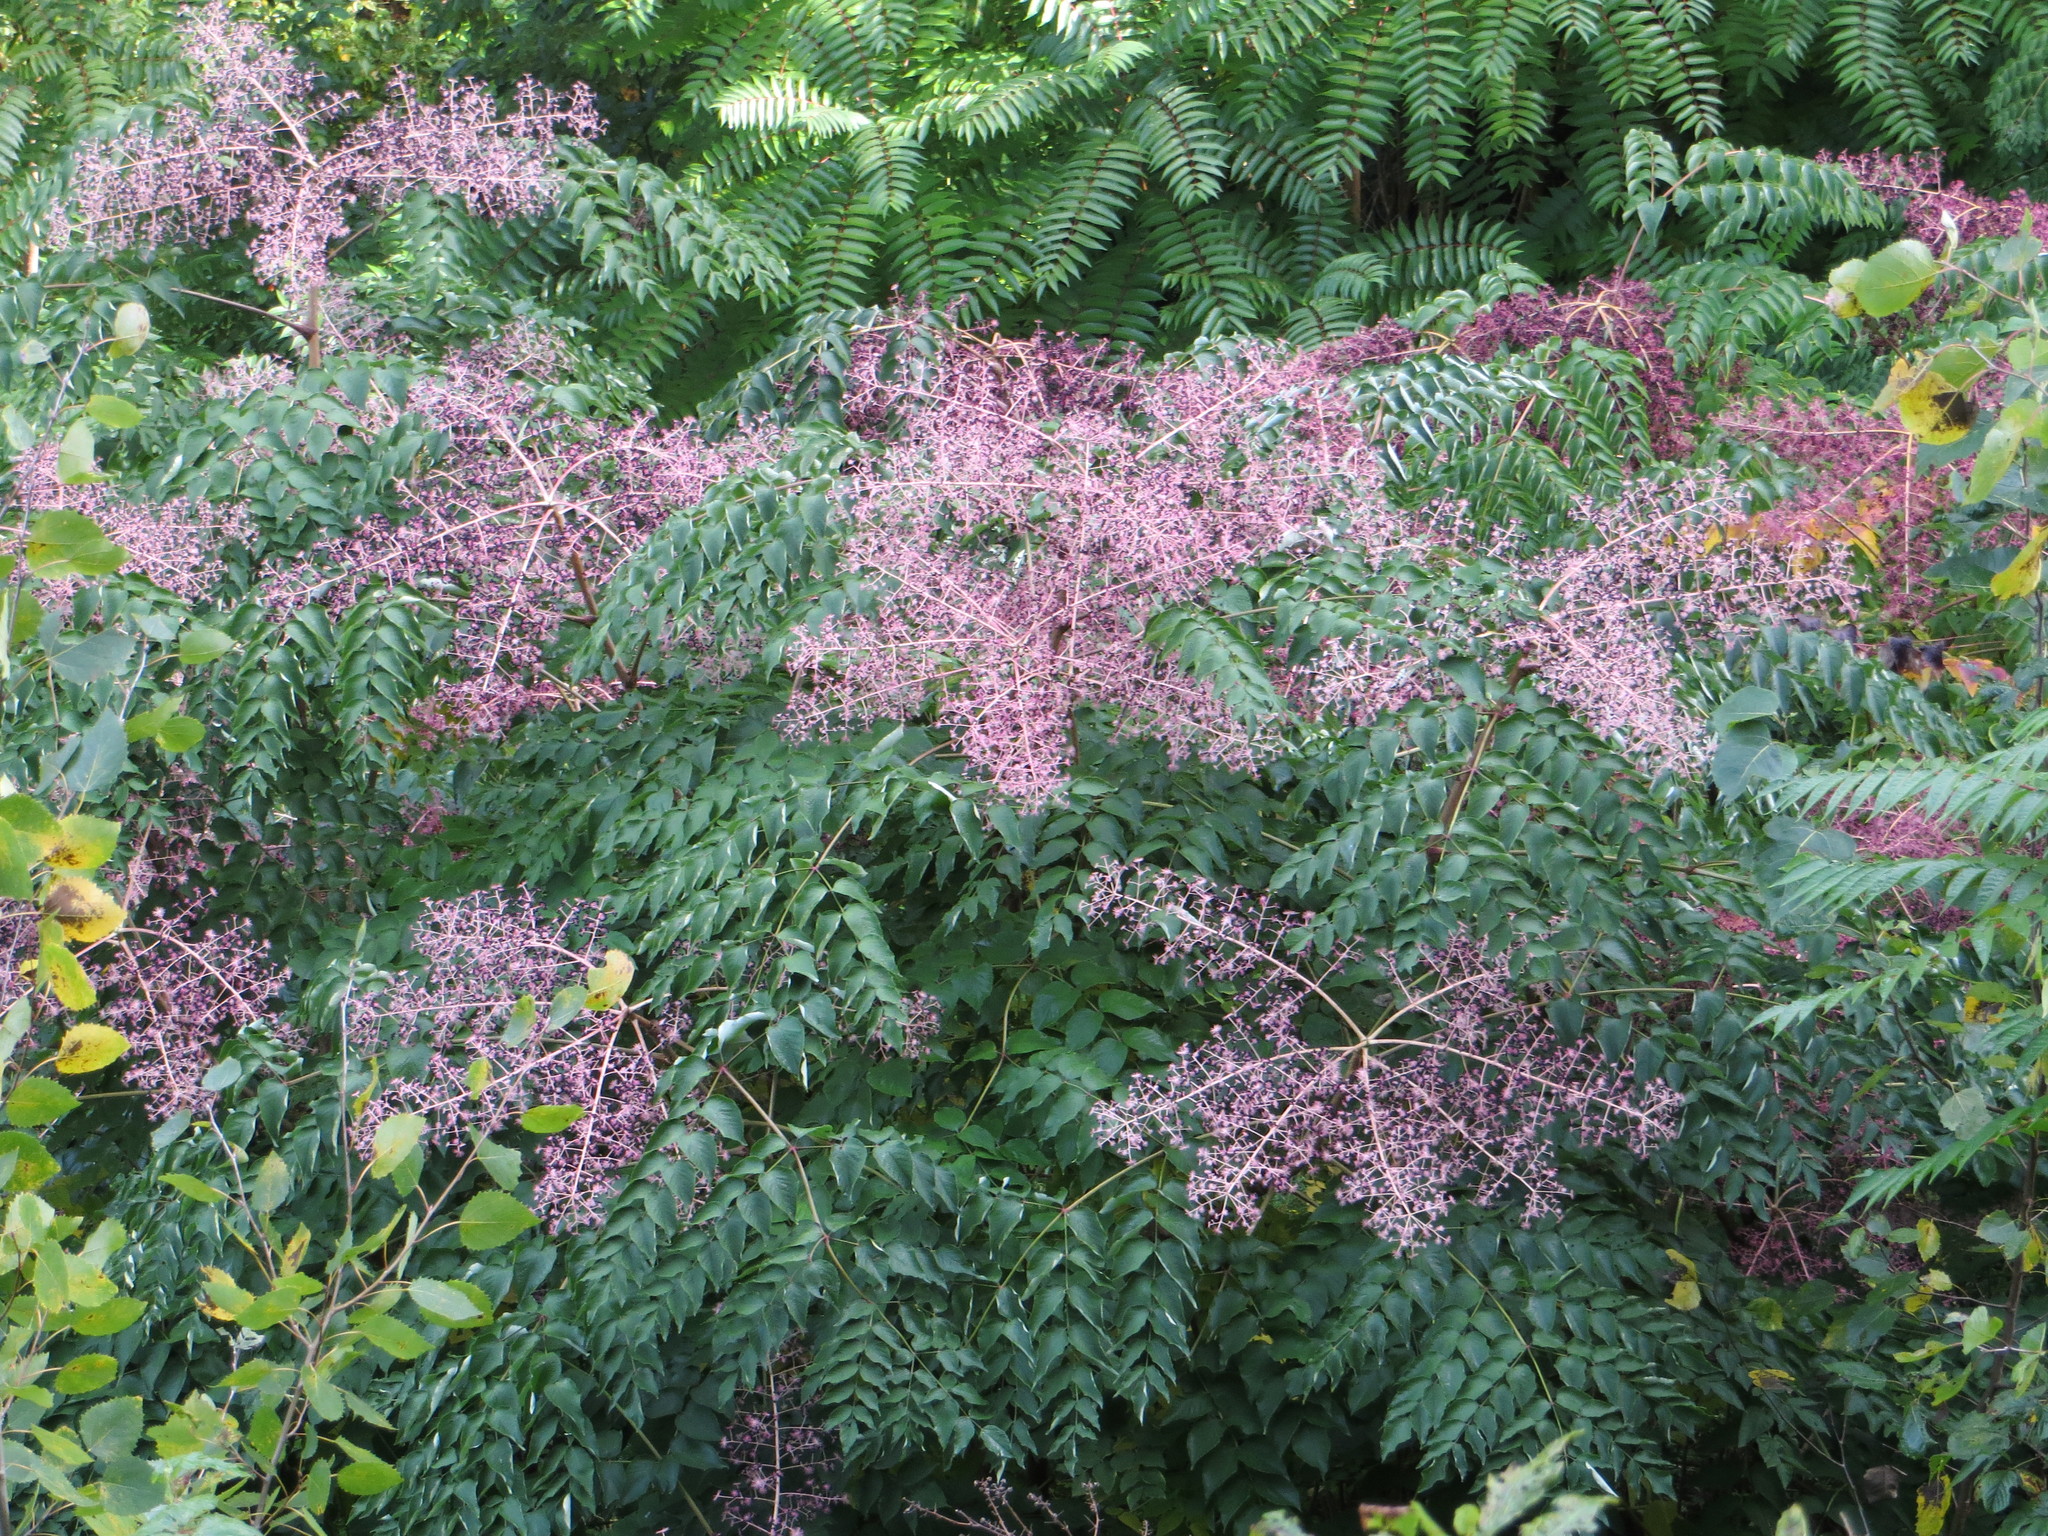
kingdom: Plantae
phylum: Tracheophyta
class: Magnoliopsida
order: Apiales
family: Araliaceae
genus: Aralia
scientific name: Aralia elata
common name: Japanese angelica-tree
